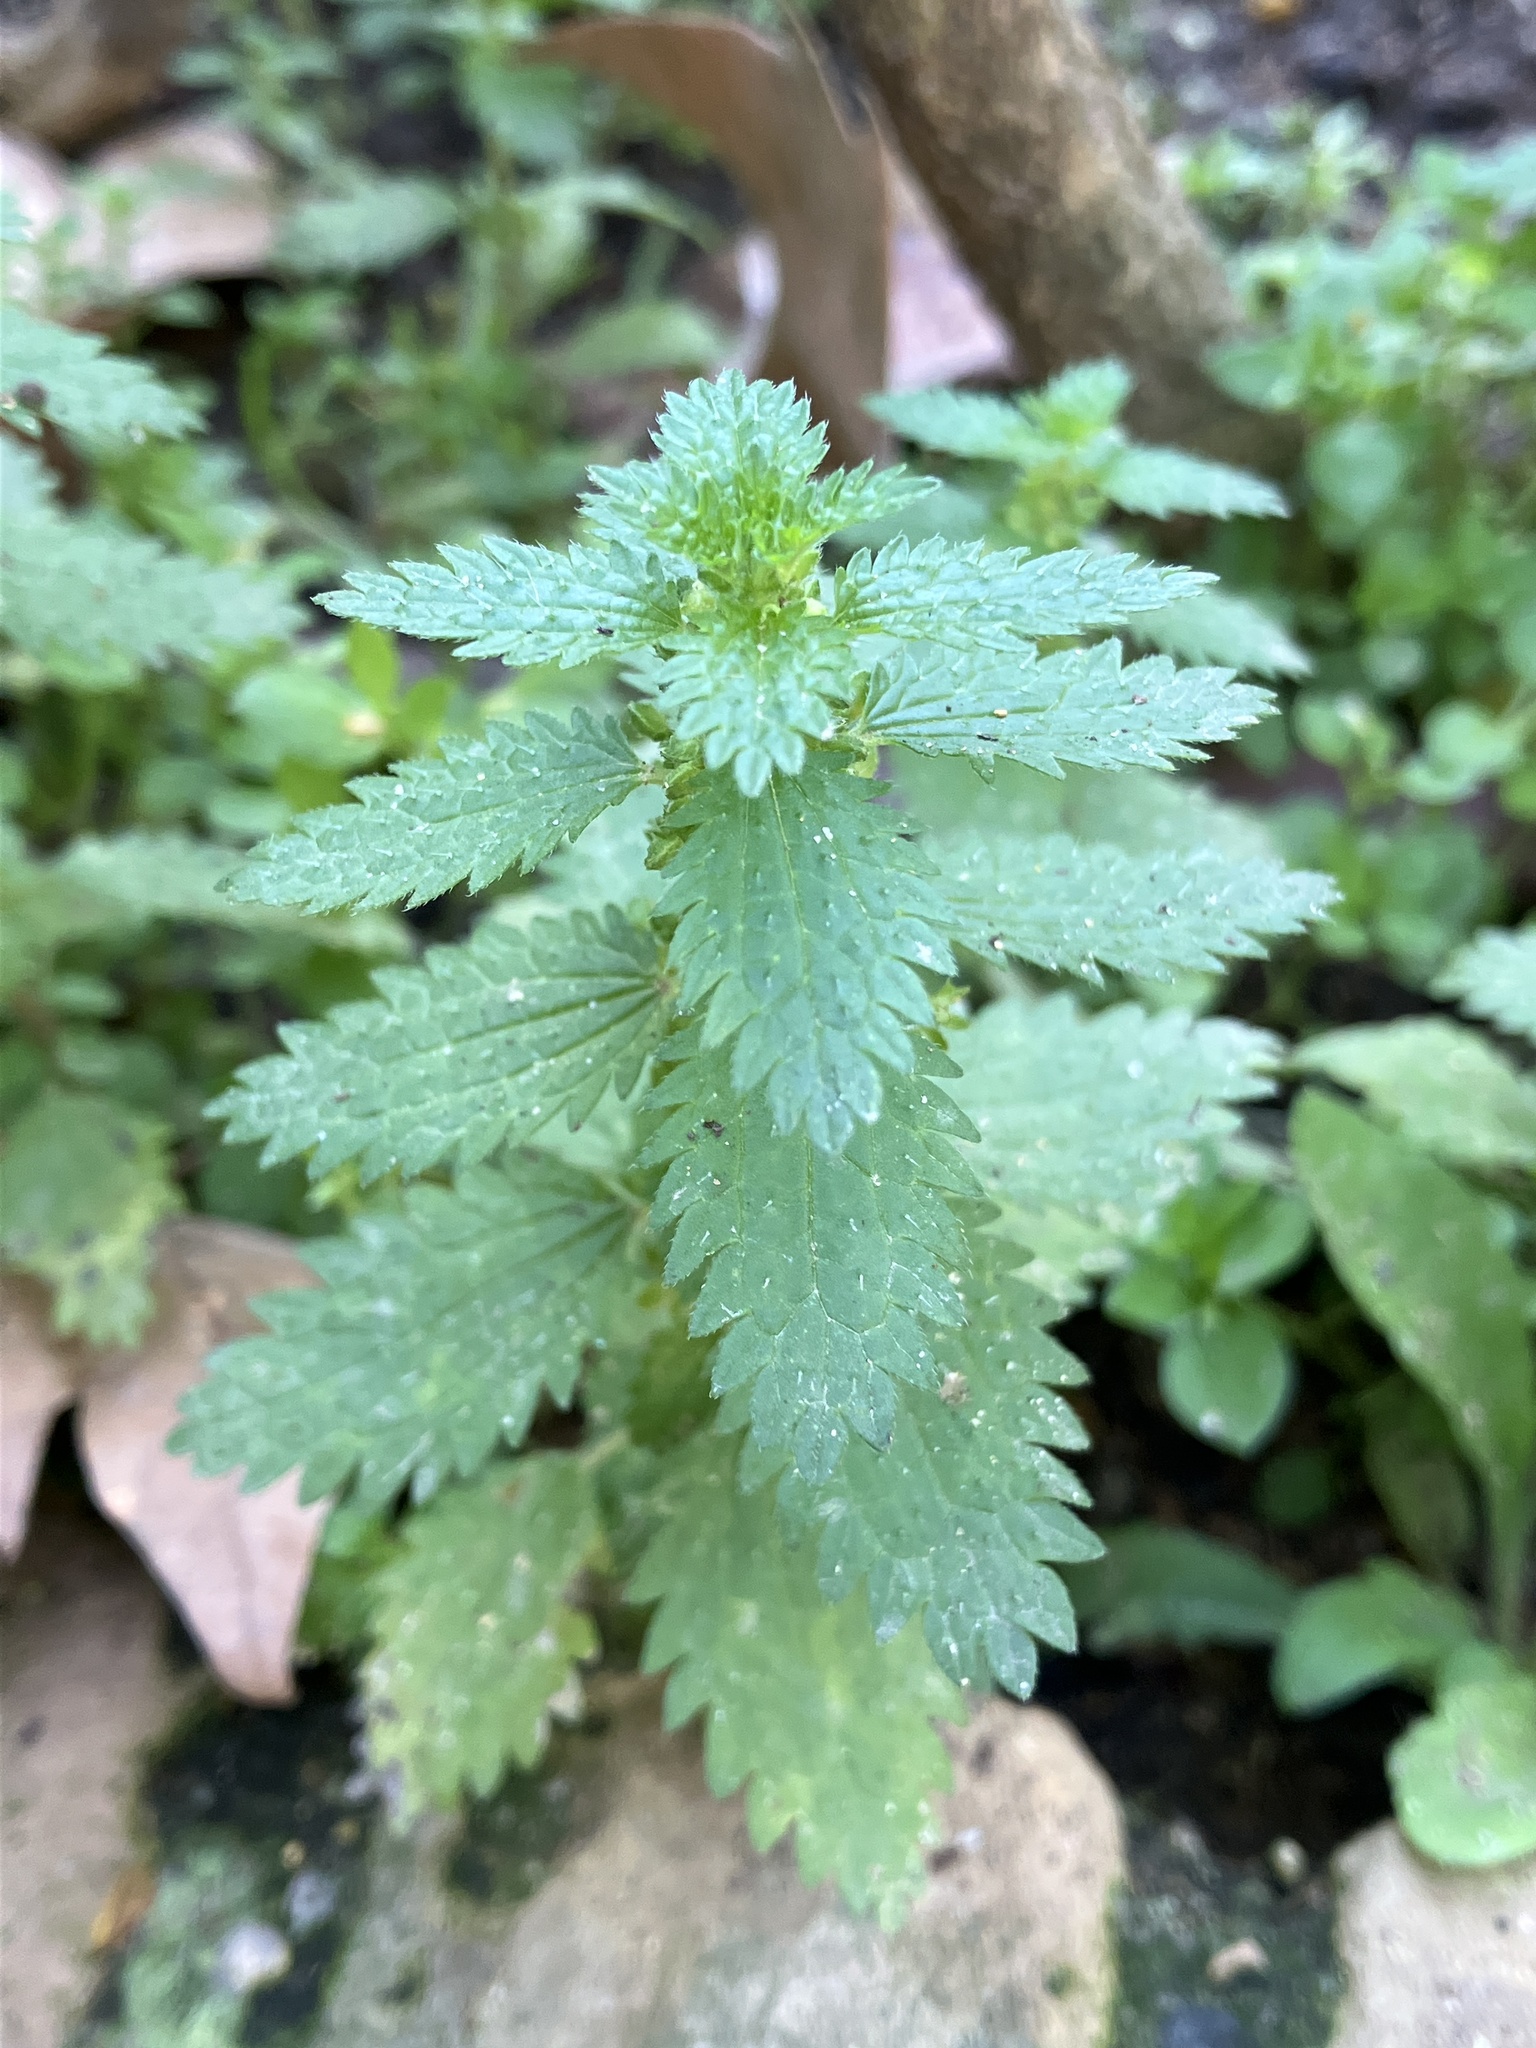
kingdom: Plantae
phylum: Tracheophyta
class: Magnoliopsida
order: Rosales
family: Urticaceae
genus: Urtica
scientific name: Urtica urens
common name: Dwarf nettle
